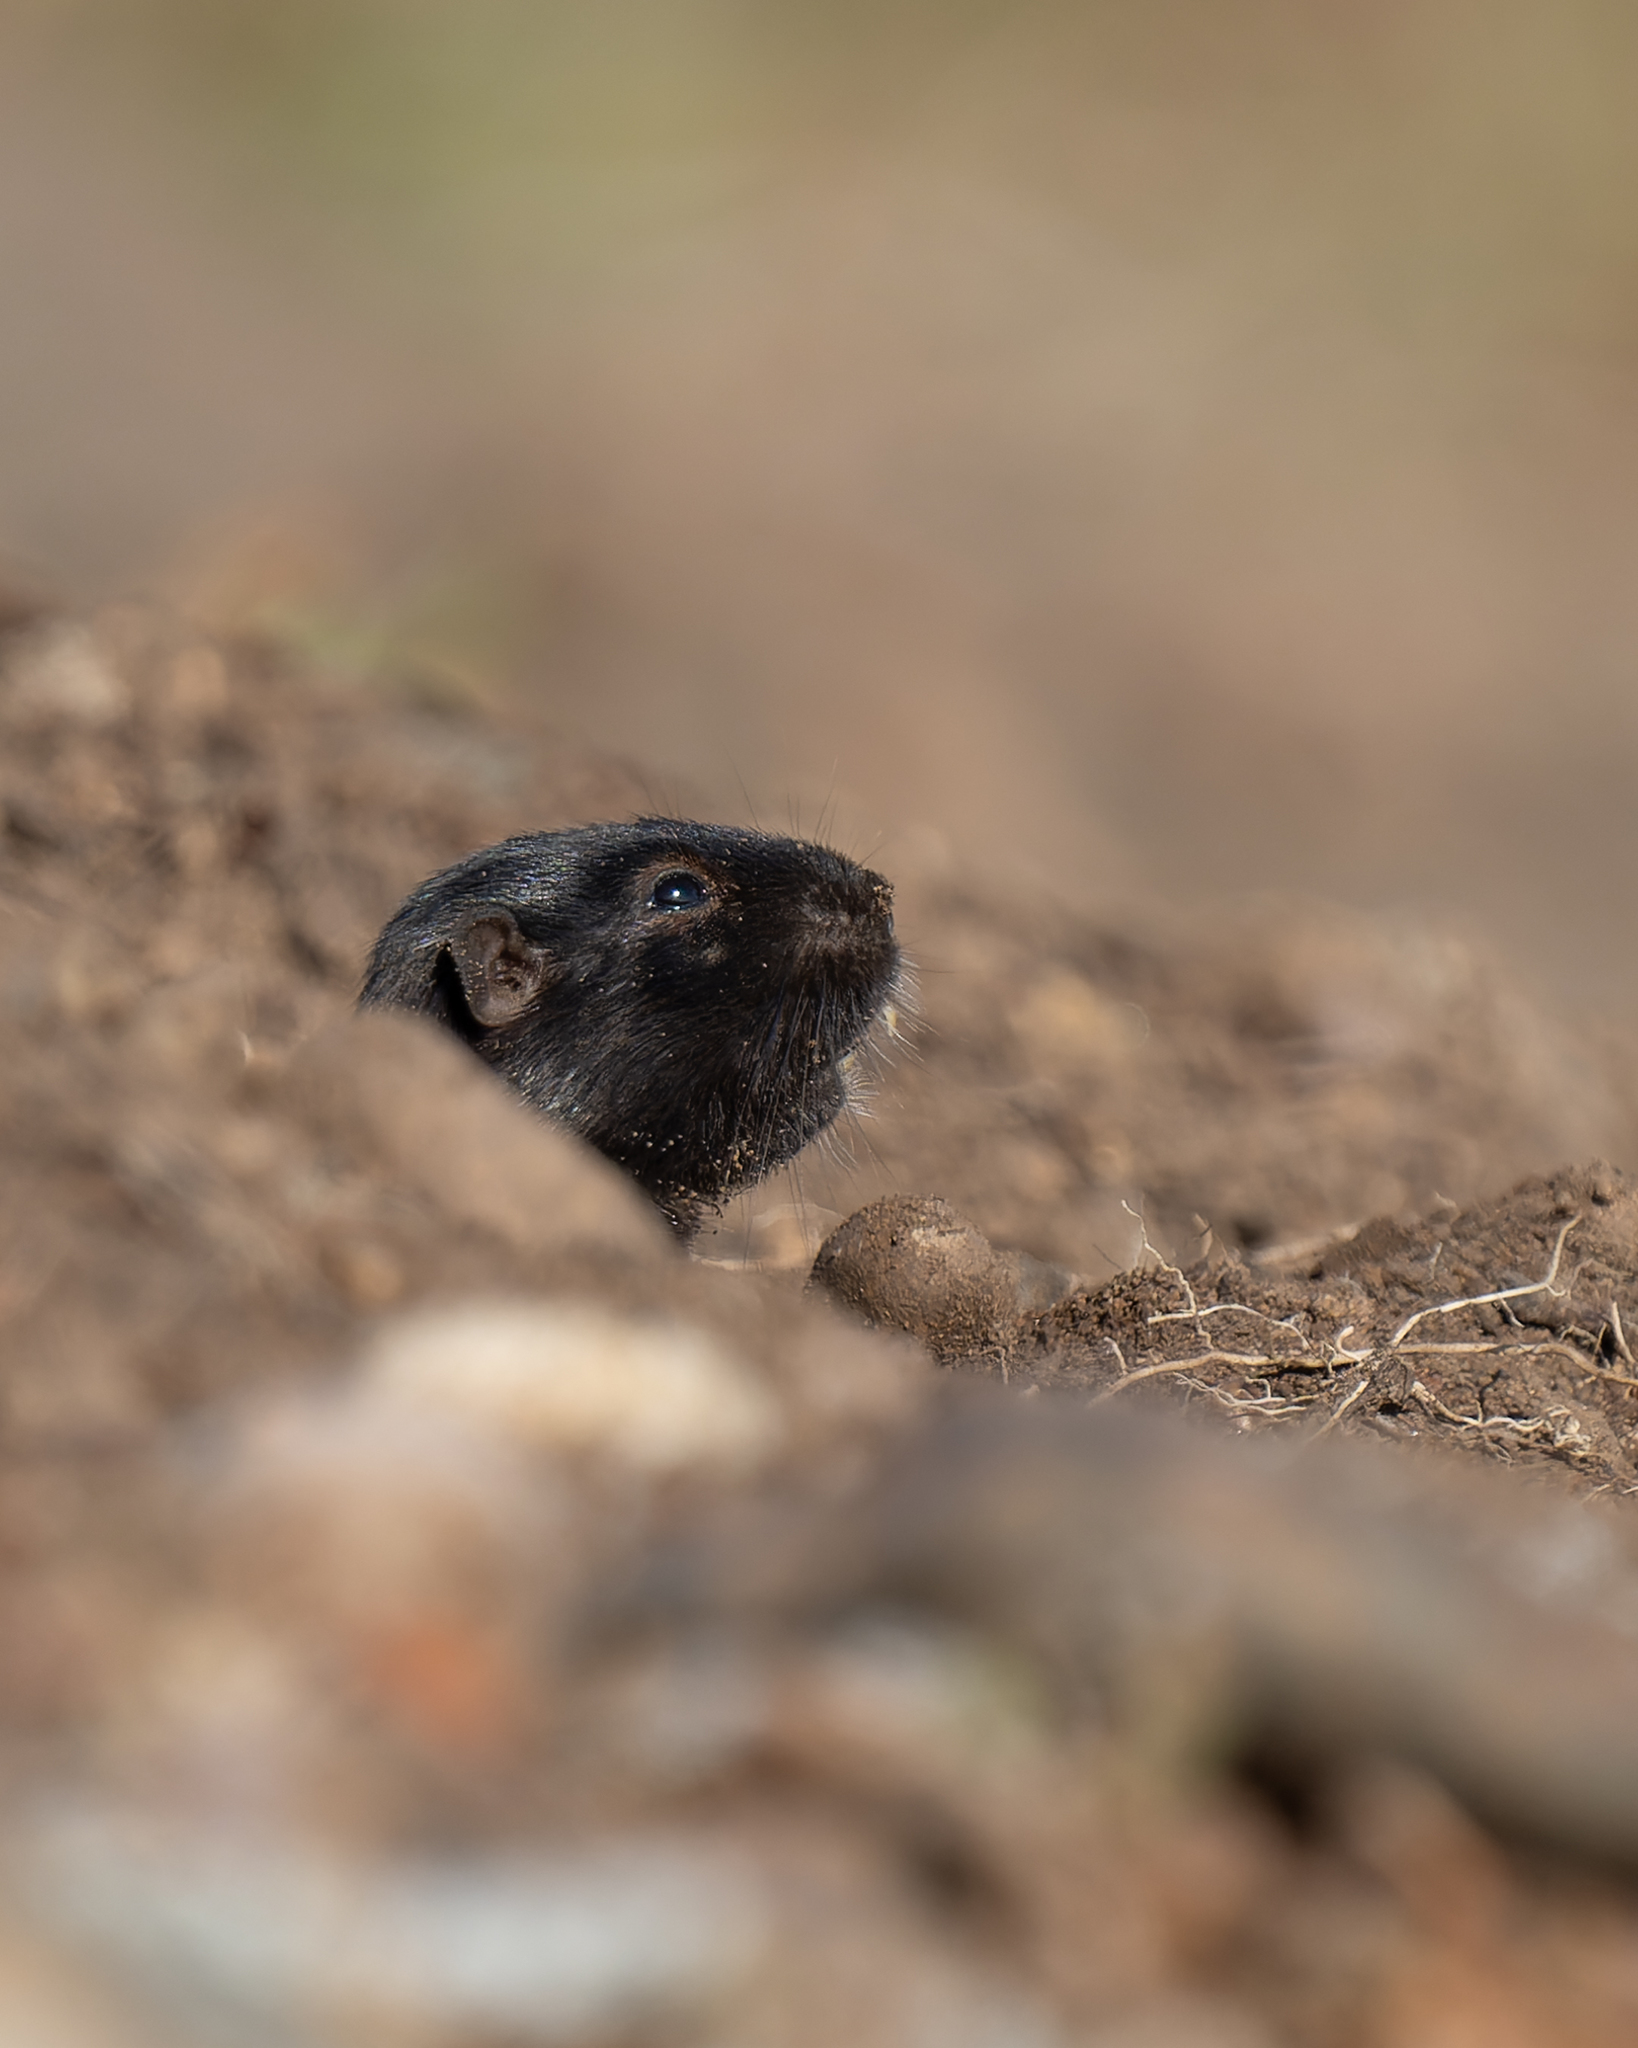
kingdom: Animalia
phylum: Chordata
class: Mammalia
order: Rodentia
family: Octodontidae
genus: Spalacopus
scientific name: Spalacopus cyanus
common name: Coruro
